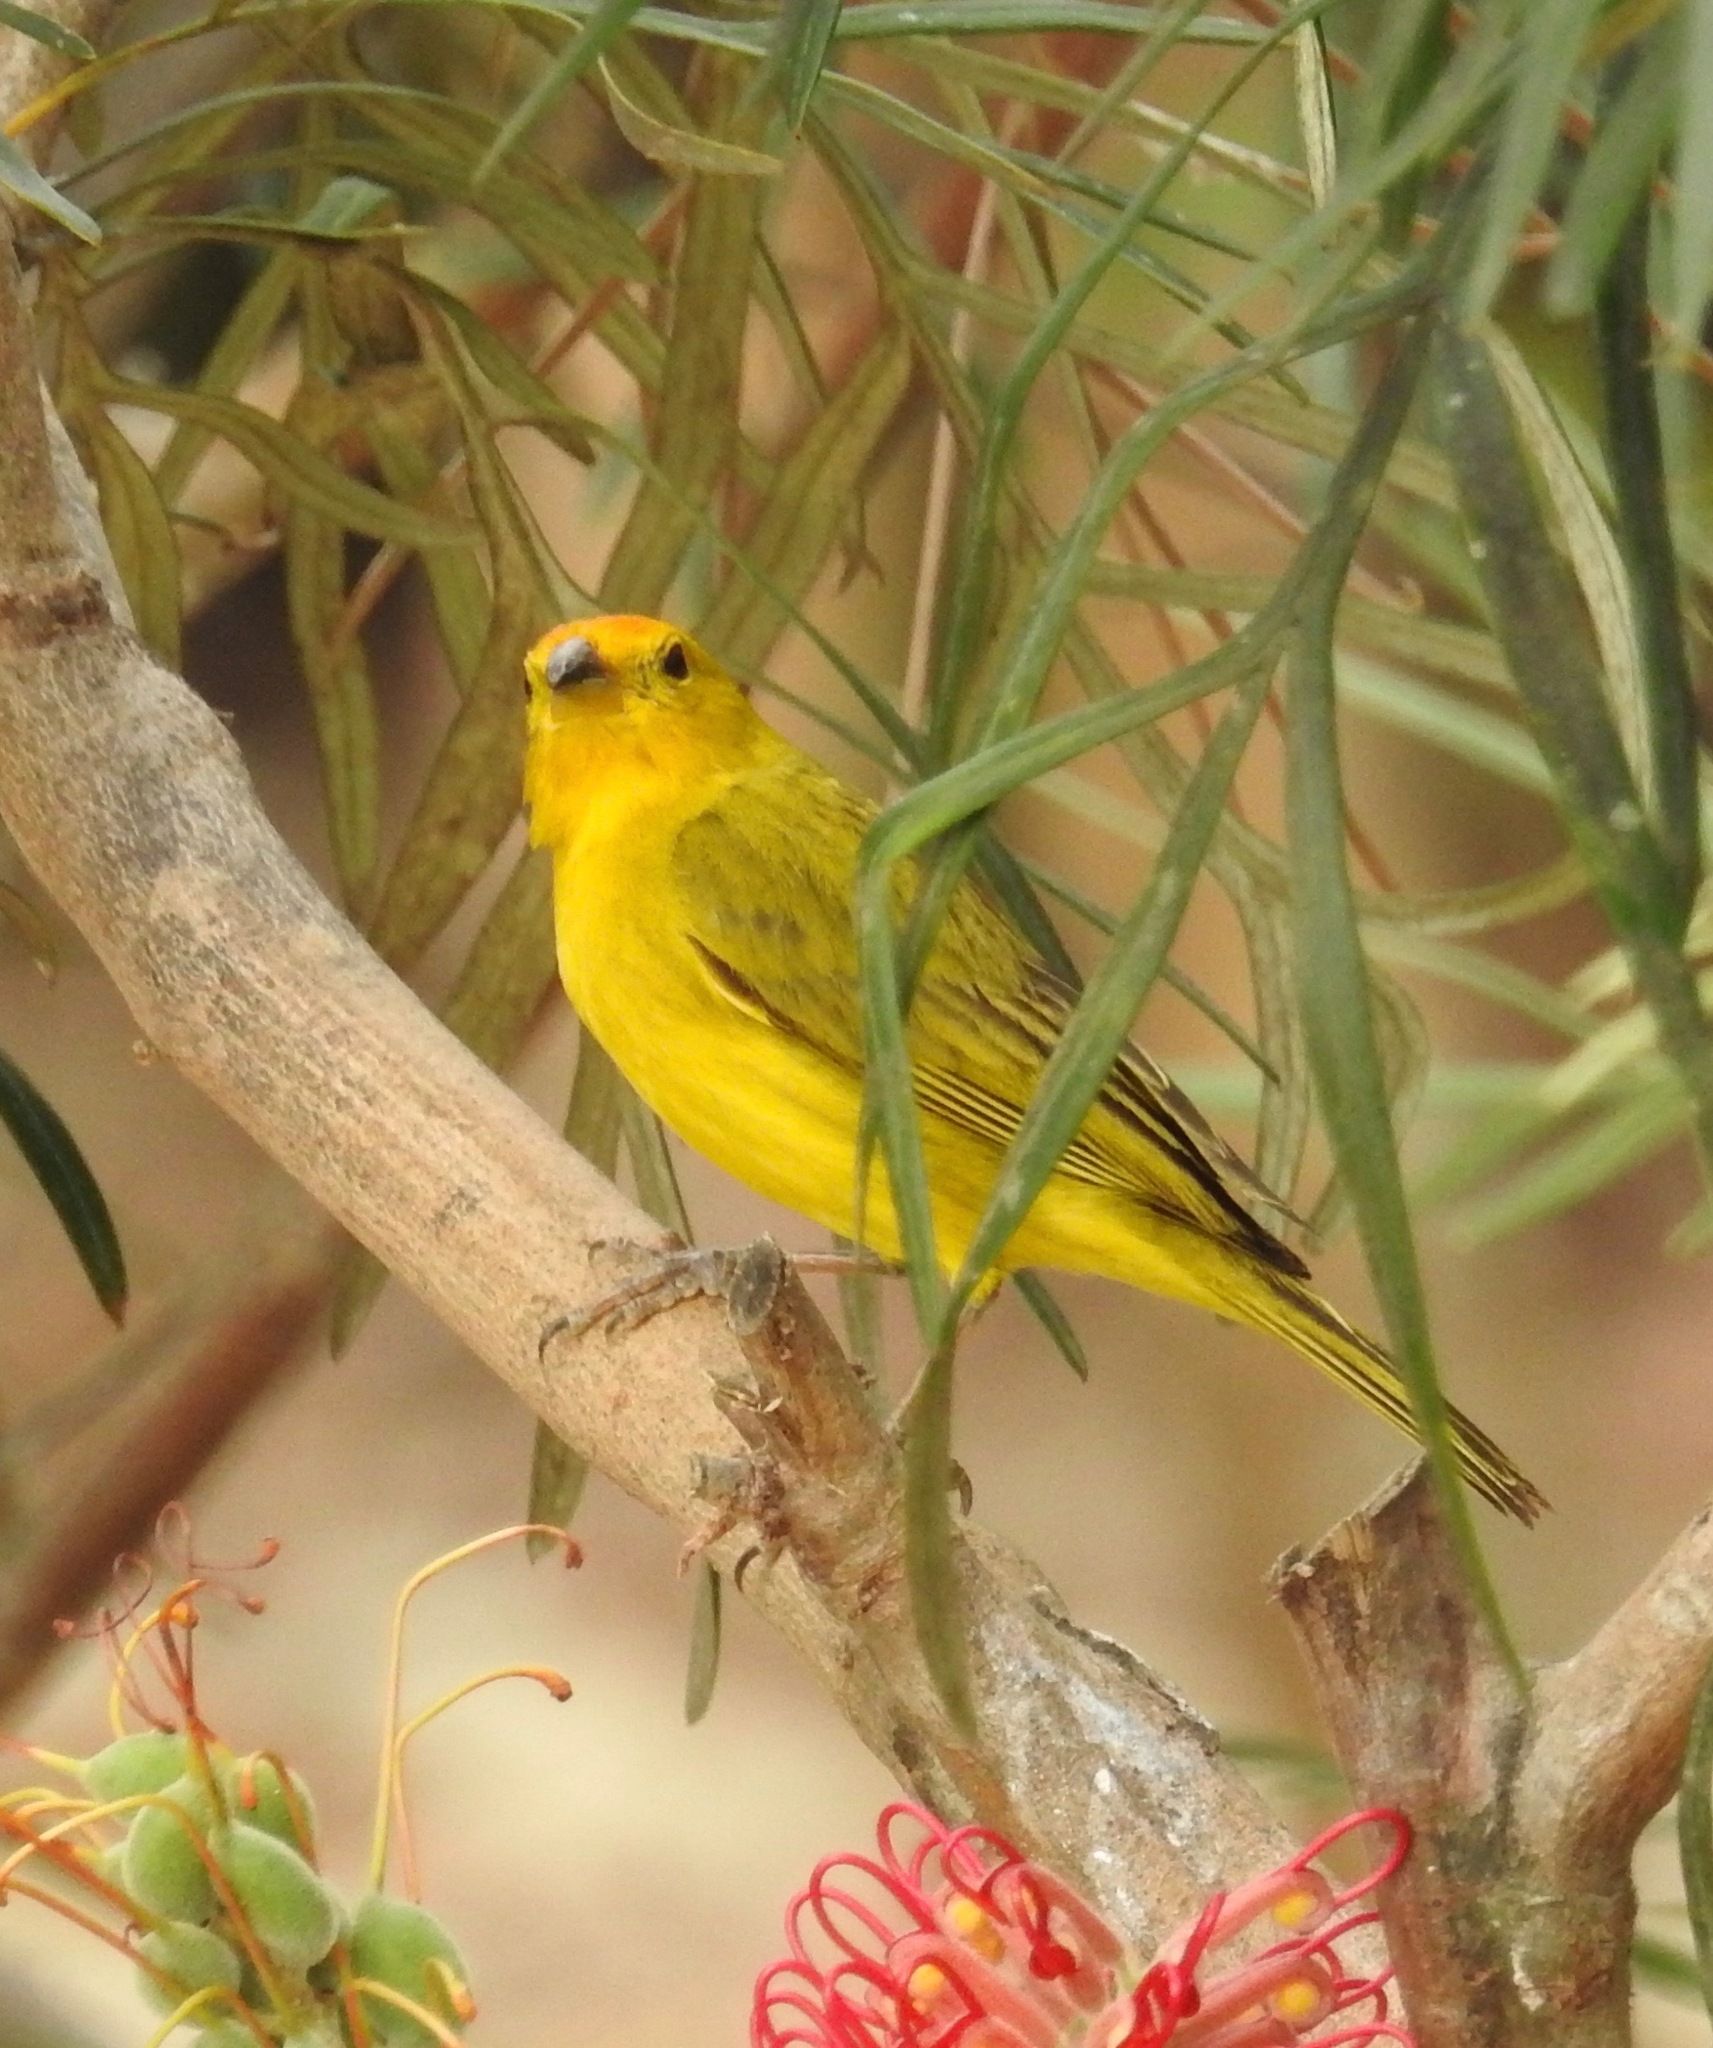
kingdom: Animalia
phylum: Chordata
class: Aves
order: Passeriformes
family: Thraupidae
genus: Sicalis
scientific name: Sicalis flaveola
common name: Saffron finch
